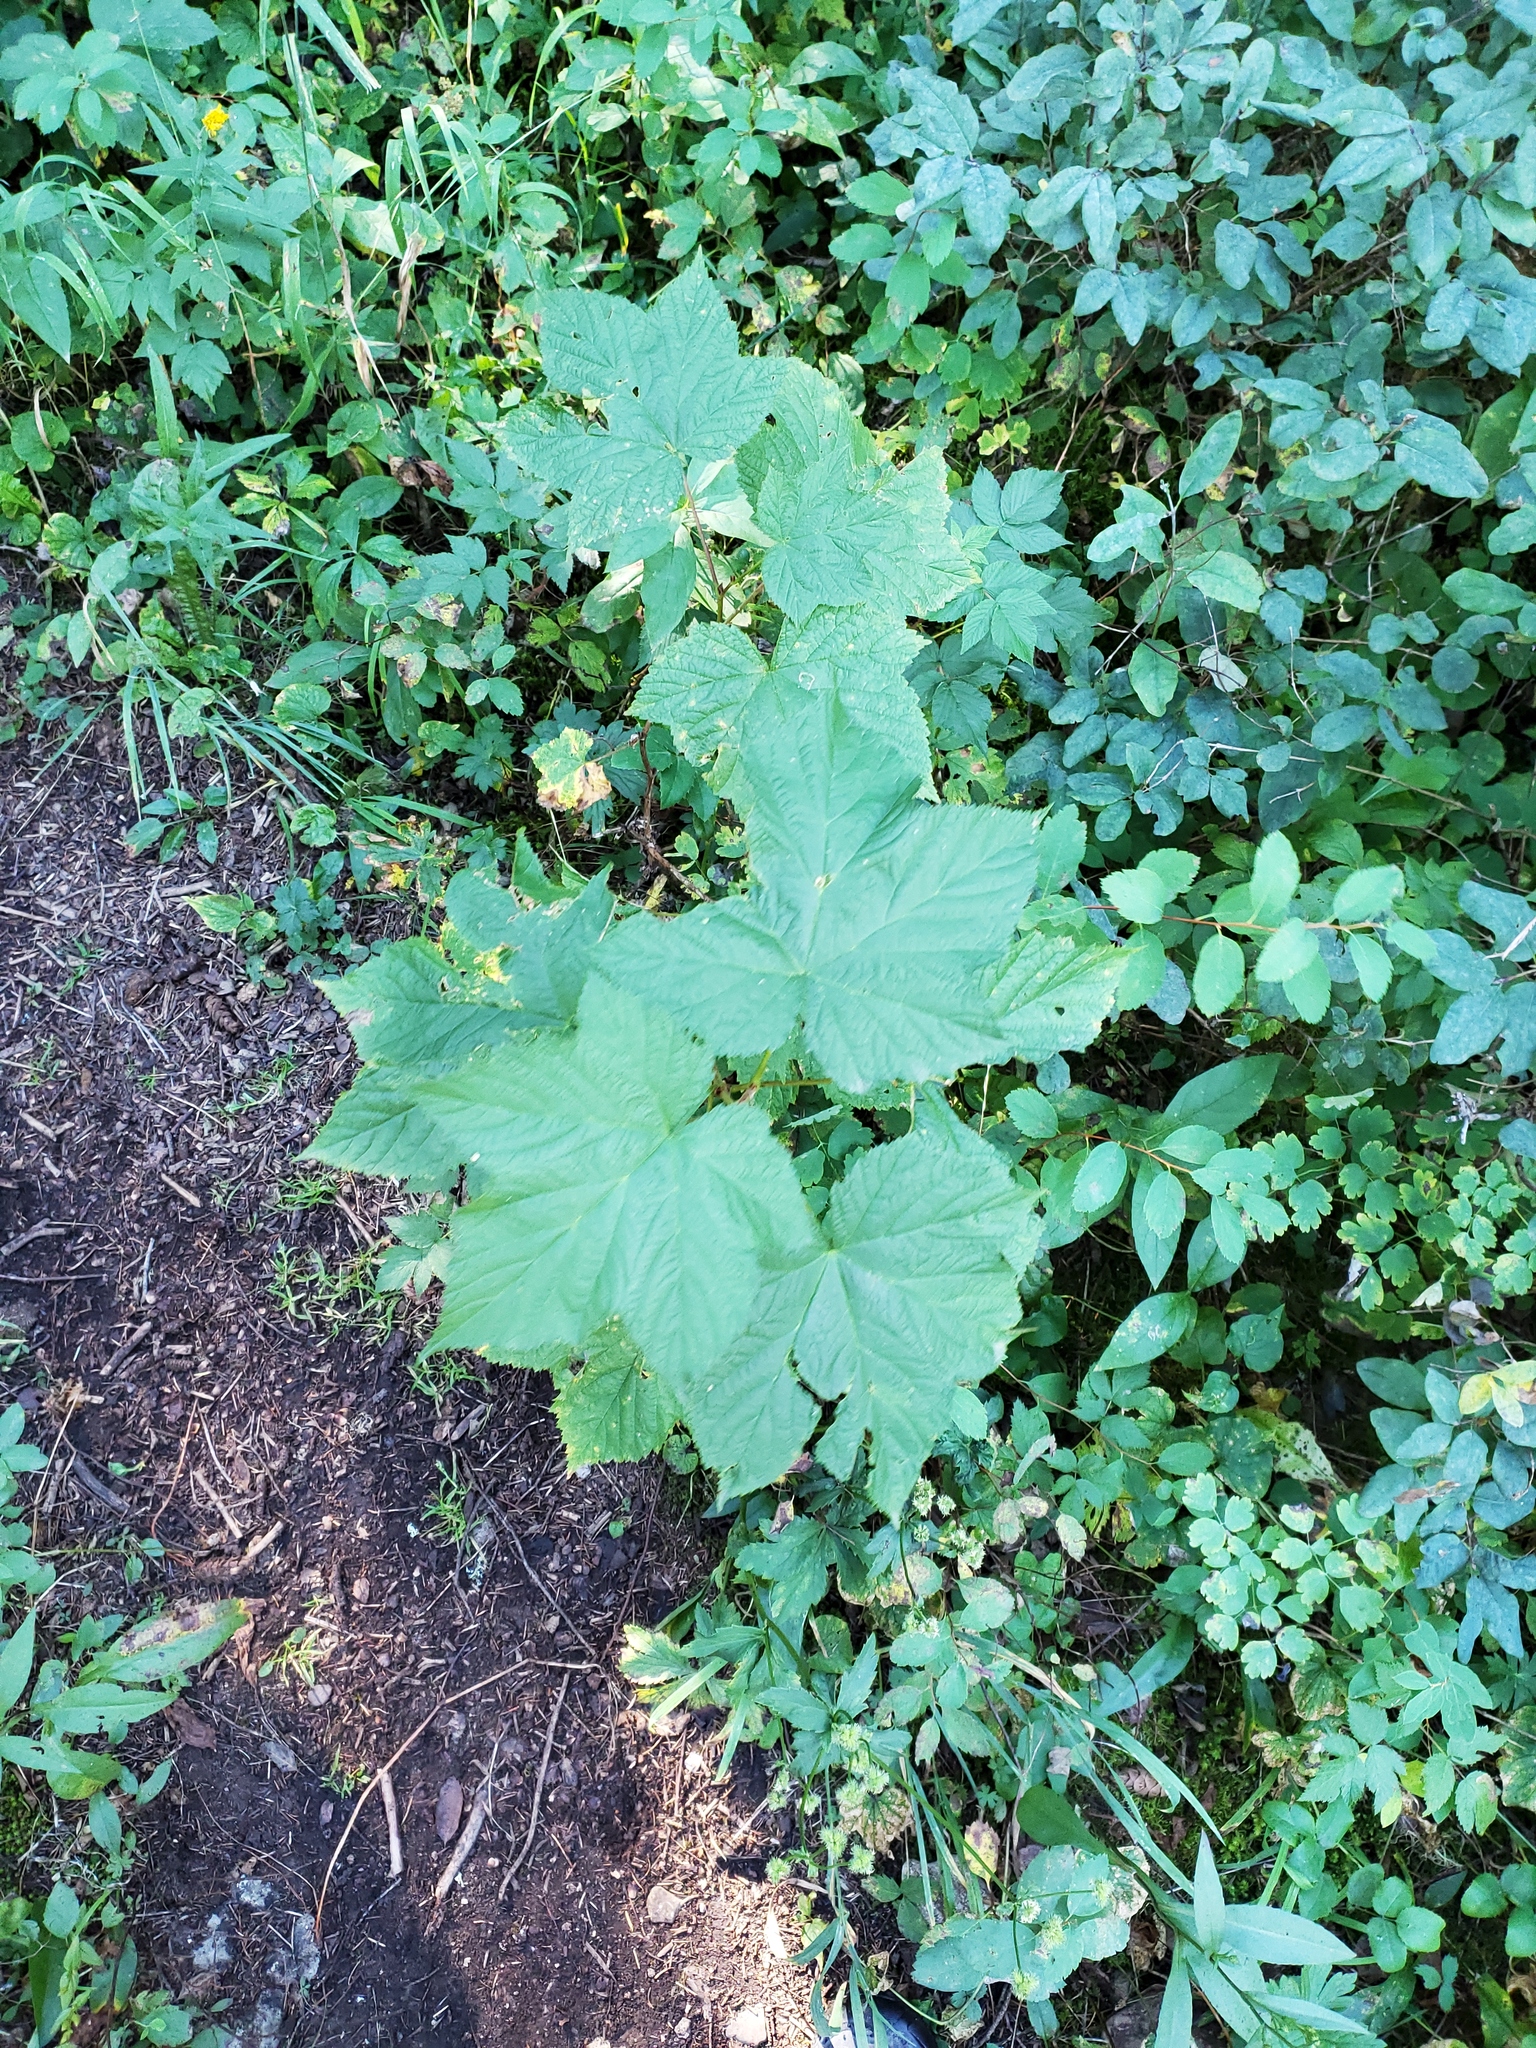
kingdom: Plantae
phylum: Tracheophyta
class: Magnoliopsida
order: Rosales
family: Rosaceae
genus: Rubus
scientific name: Rubus parviflorus
